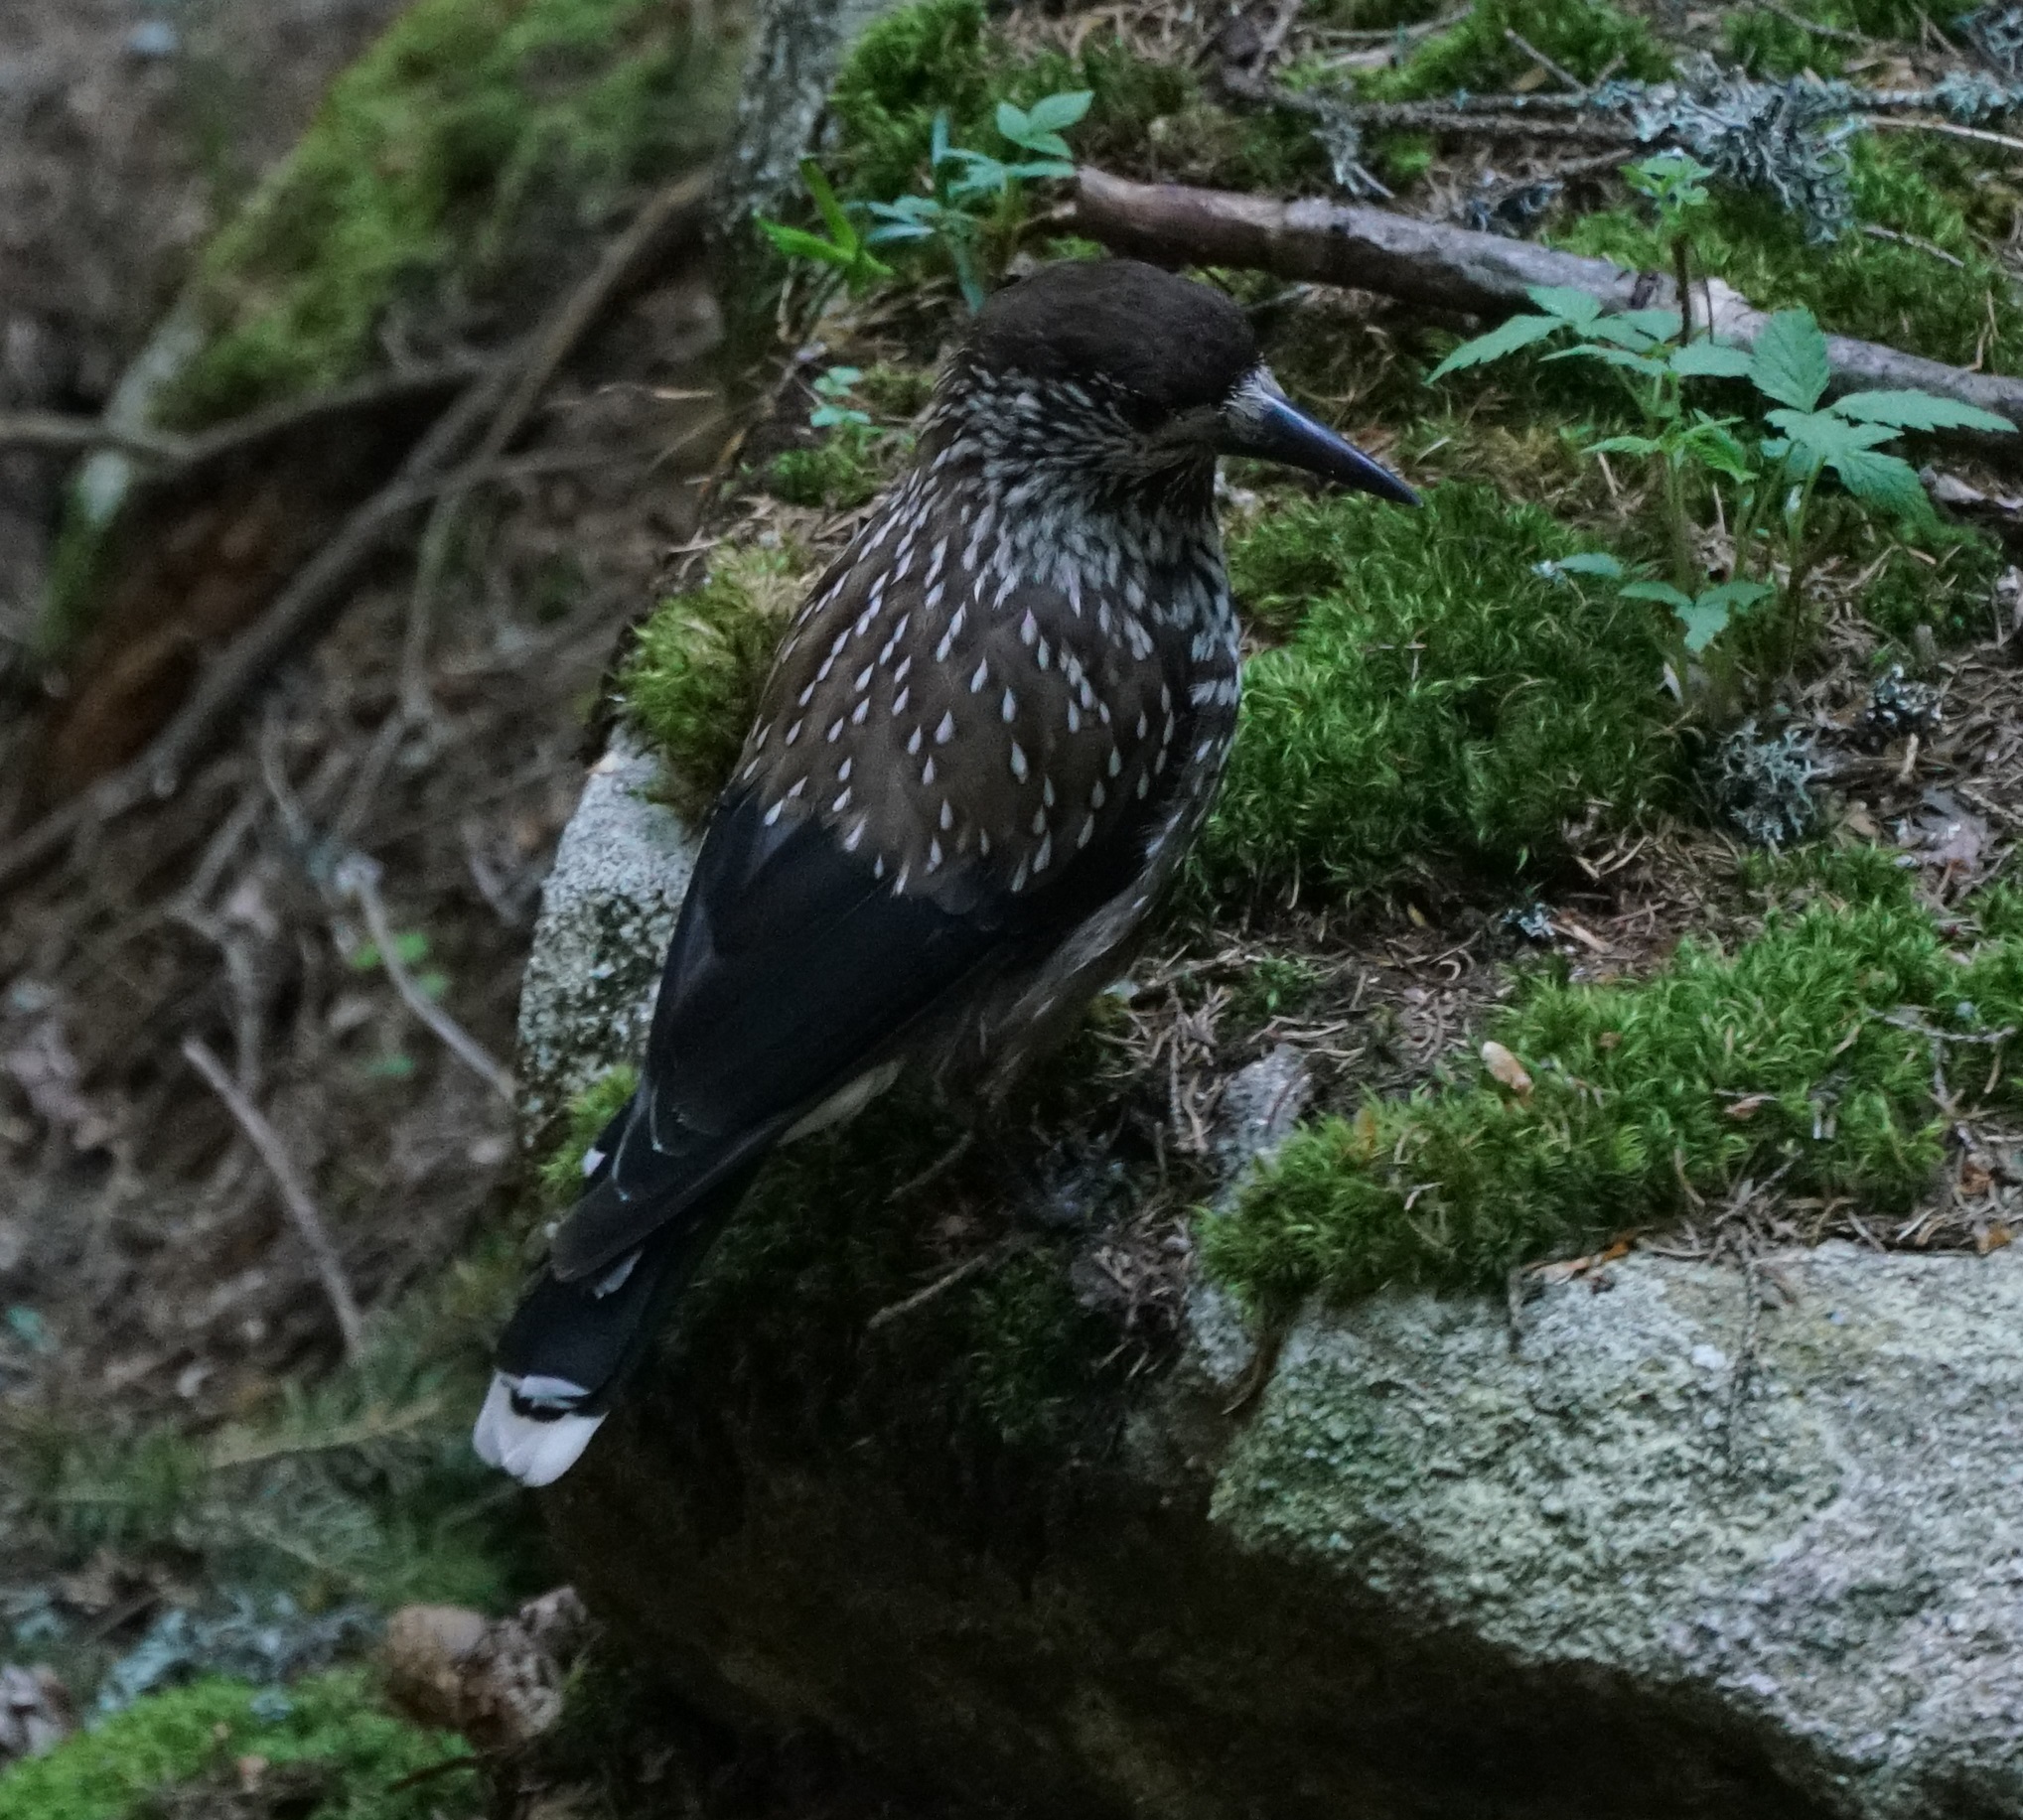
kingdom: Animalia
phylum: Chordata
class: Aves
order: Passeriformes
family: Corvidae
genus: Nucifraga
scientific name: Nucifraga caryocatactes
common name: Spotted nutcracker
